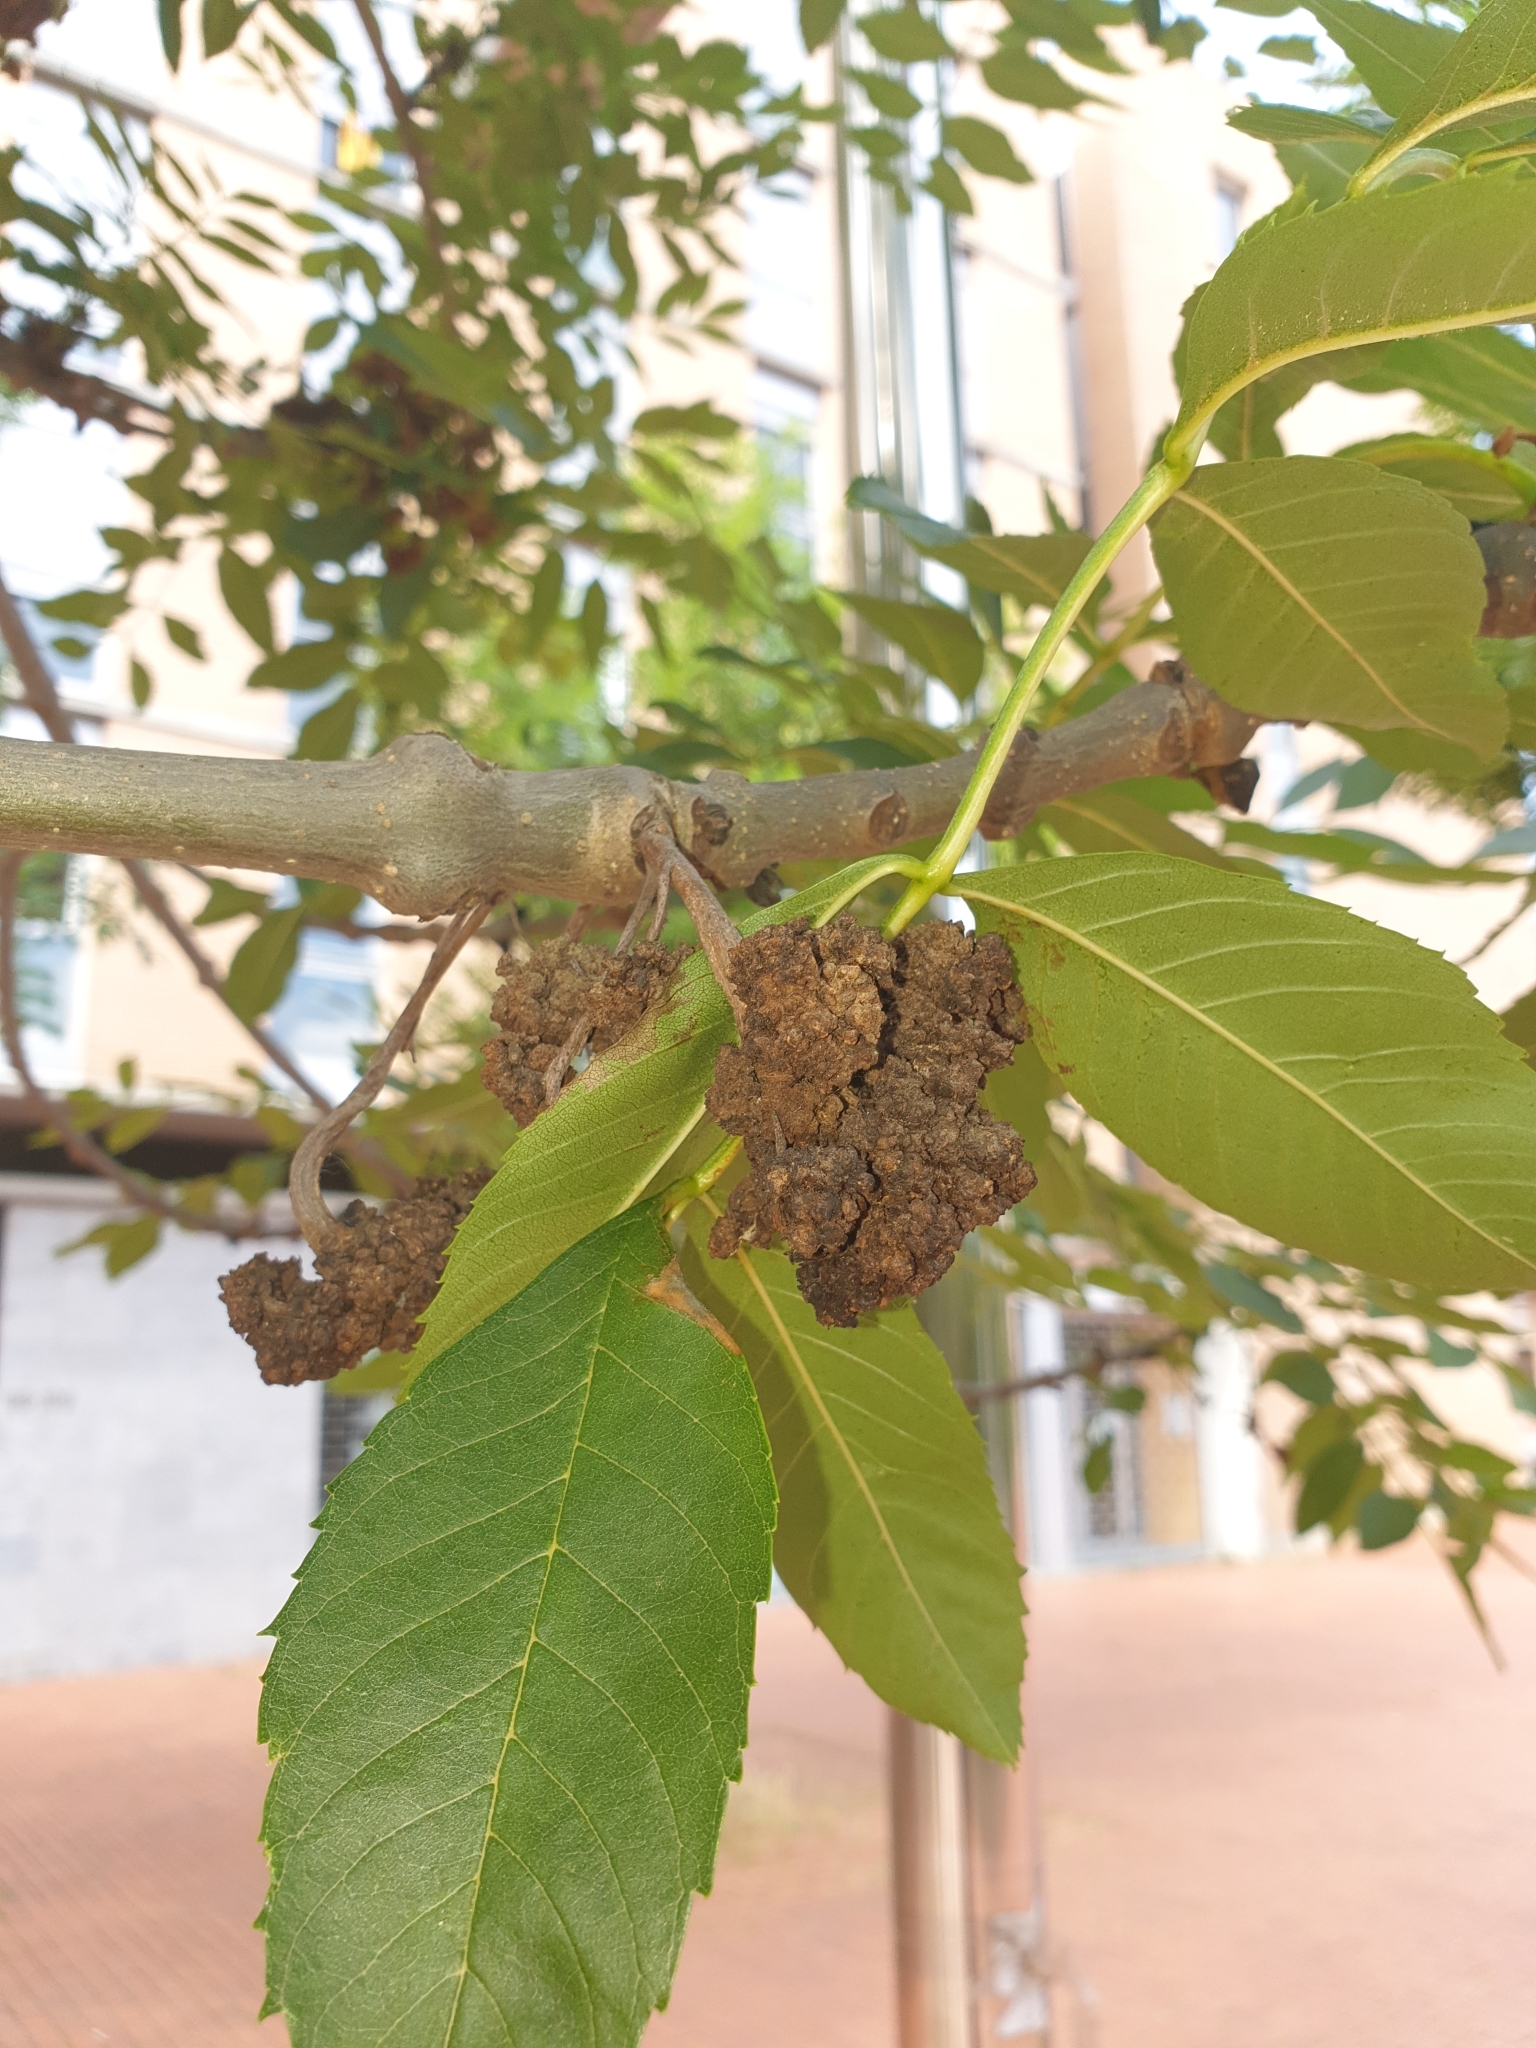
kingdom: Plantae
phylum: Tracheophyta
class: Magnoliopsida
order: Lamiales
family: Oleaceae
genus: Fraxinus
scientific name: Fraxinus excelsior
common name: European ash
